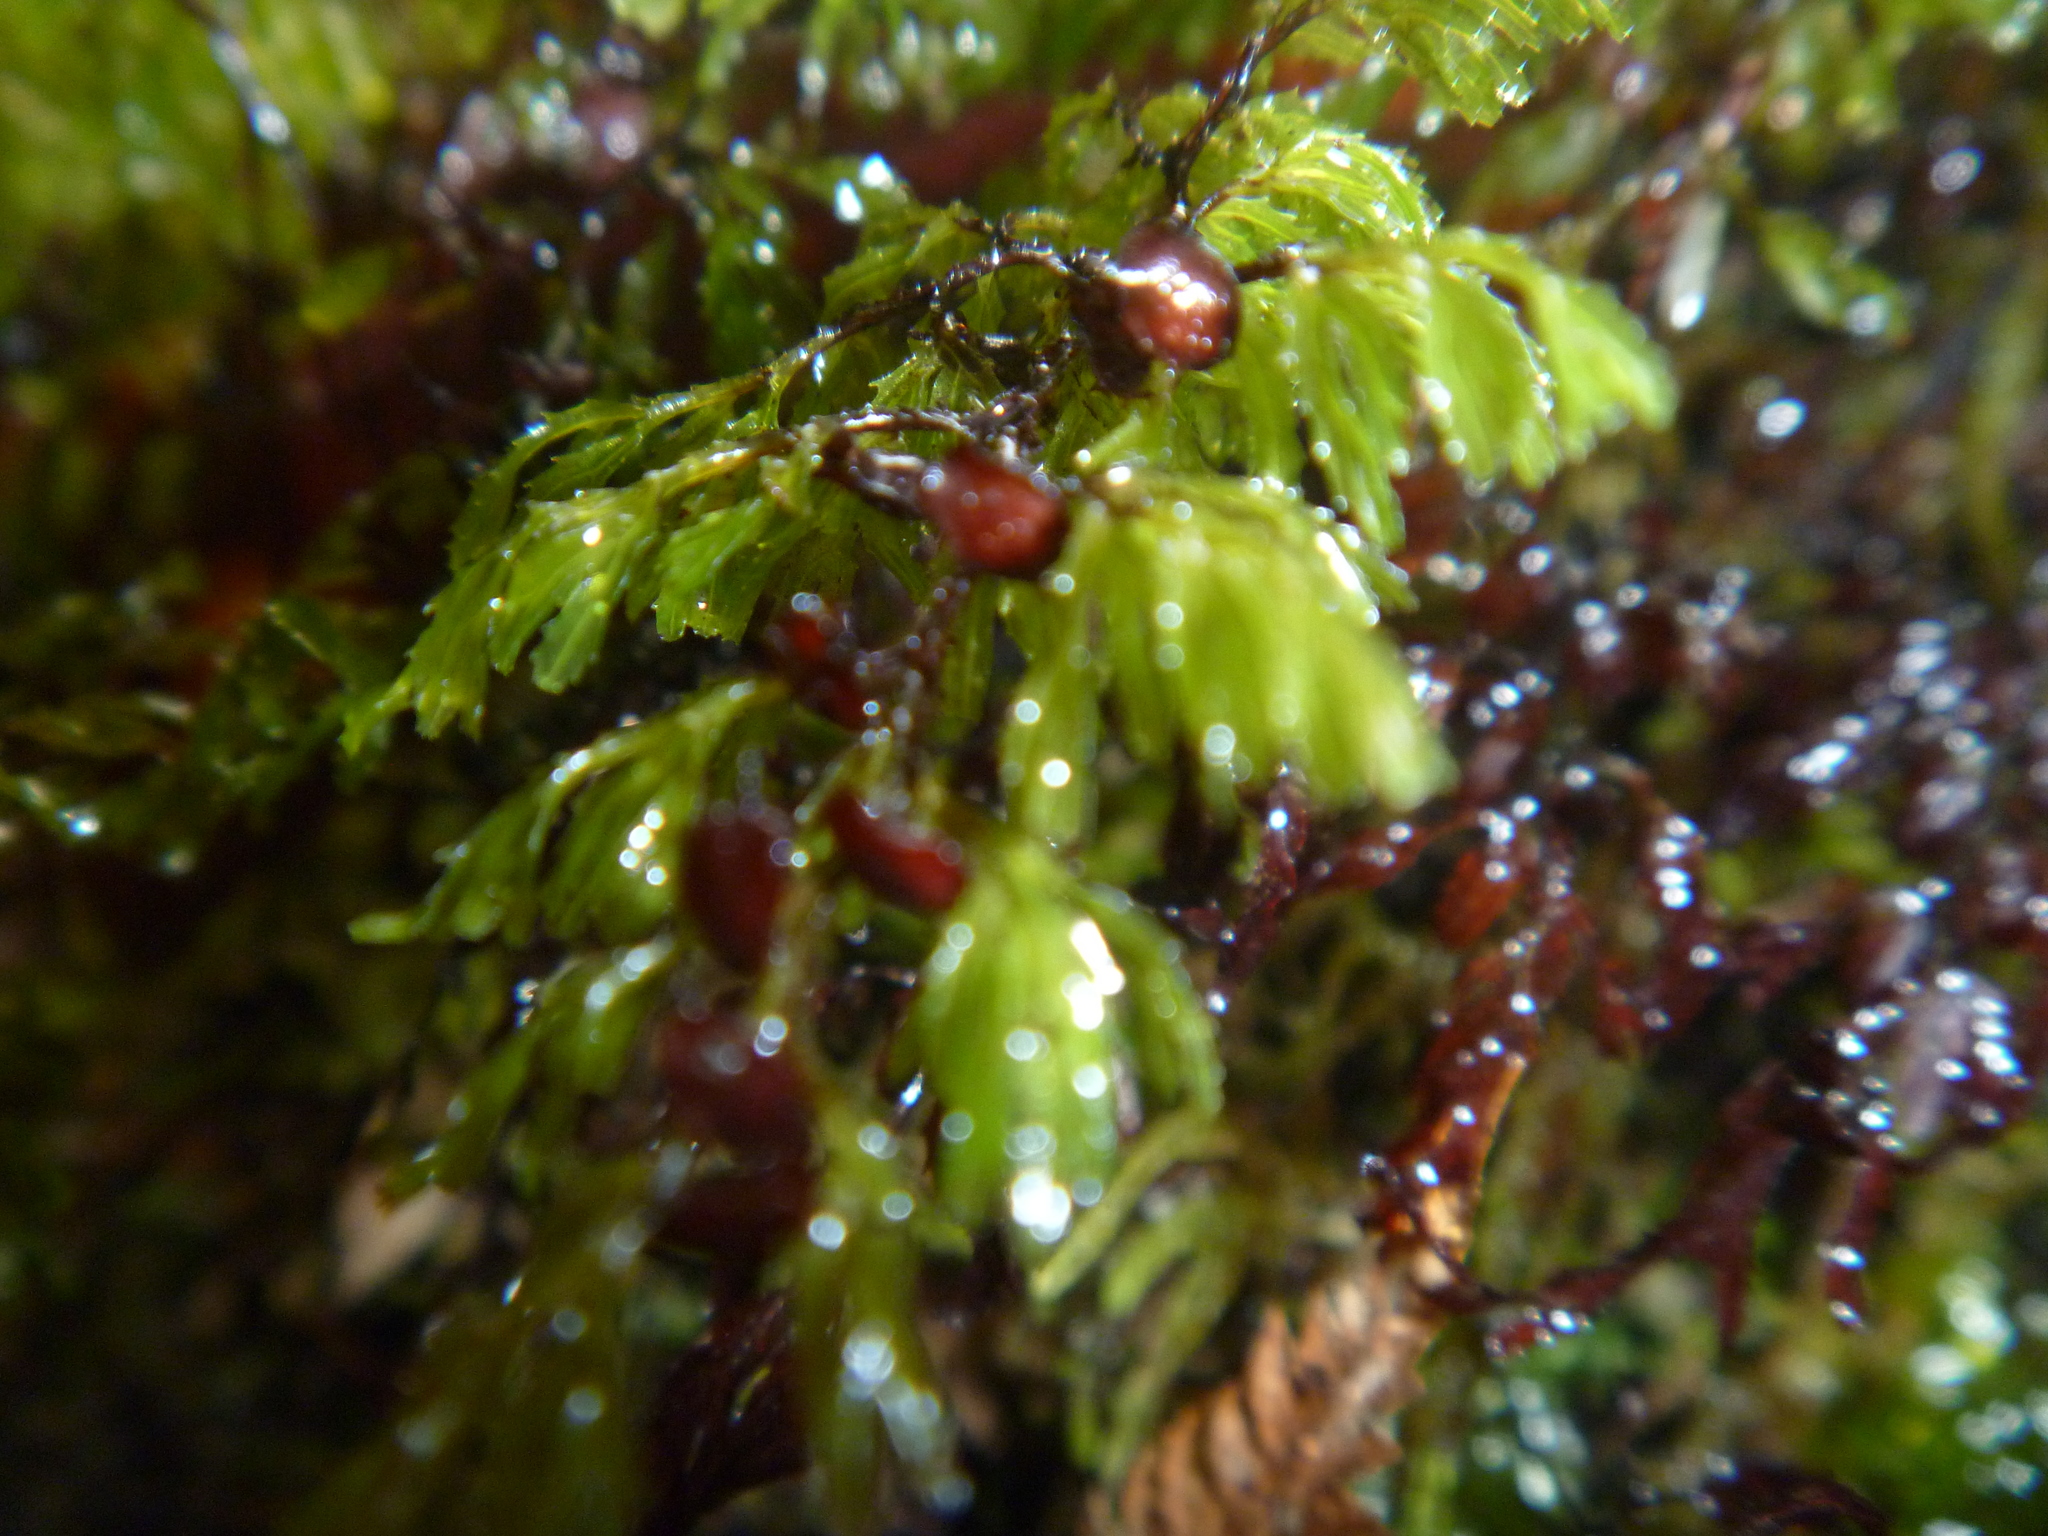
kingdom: Plantae
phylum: Tracheophyta
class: Polypodiopsida
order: Hymenophyllales
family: Hymenophyllaceae
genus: Hymenophyllum
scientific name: Hymenophyllum multifidum
